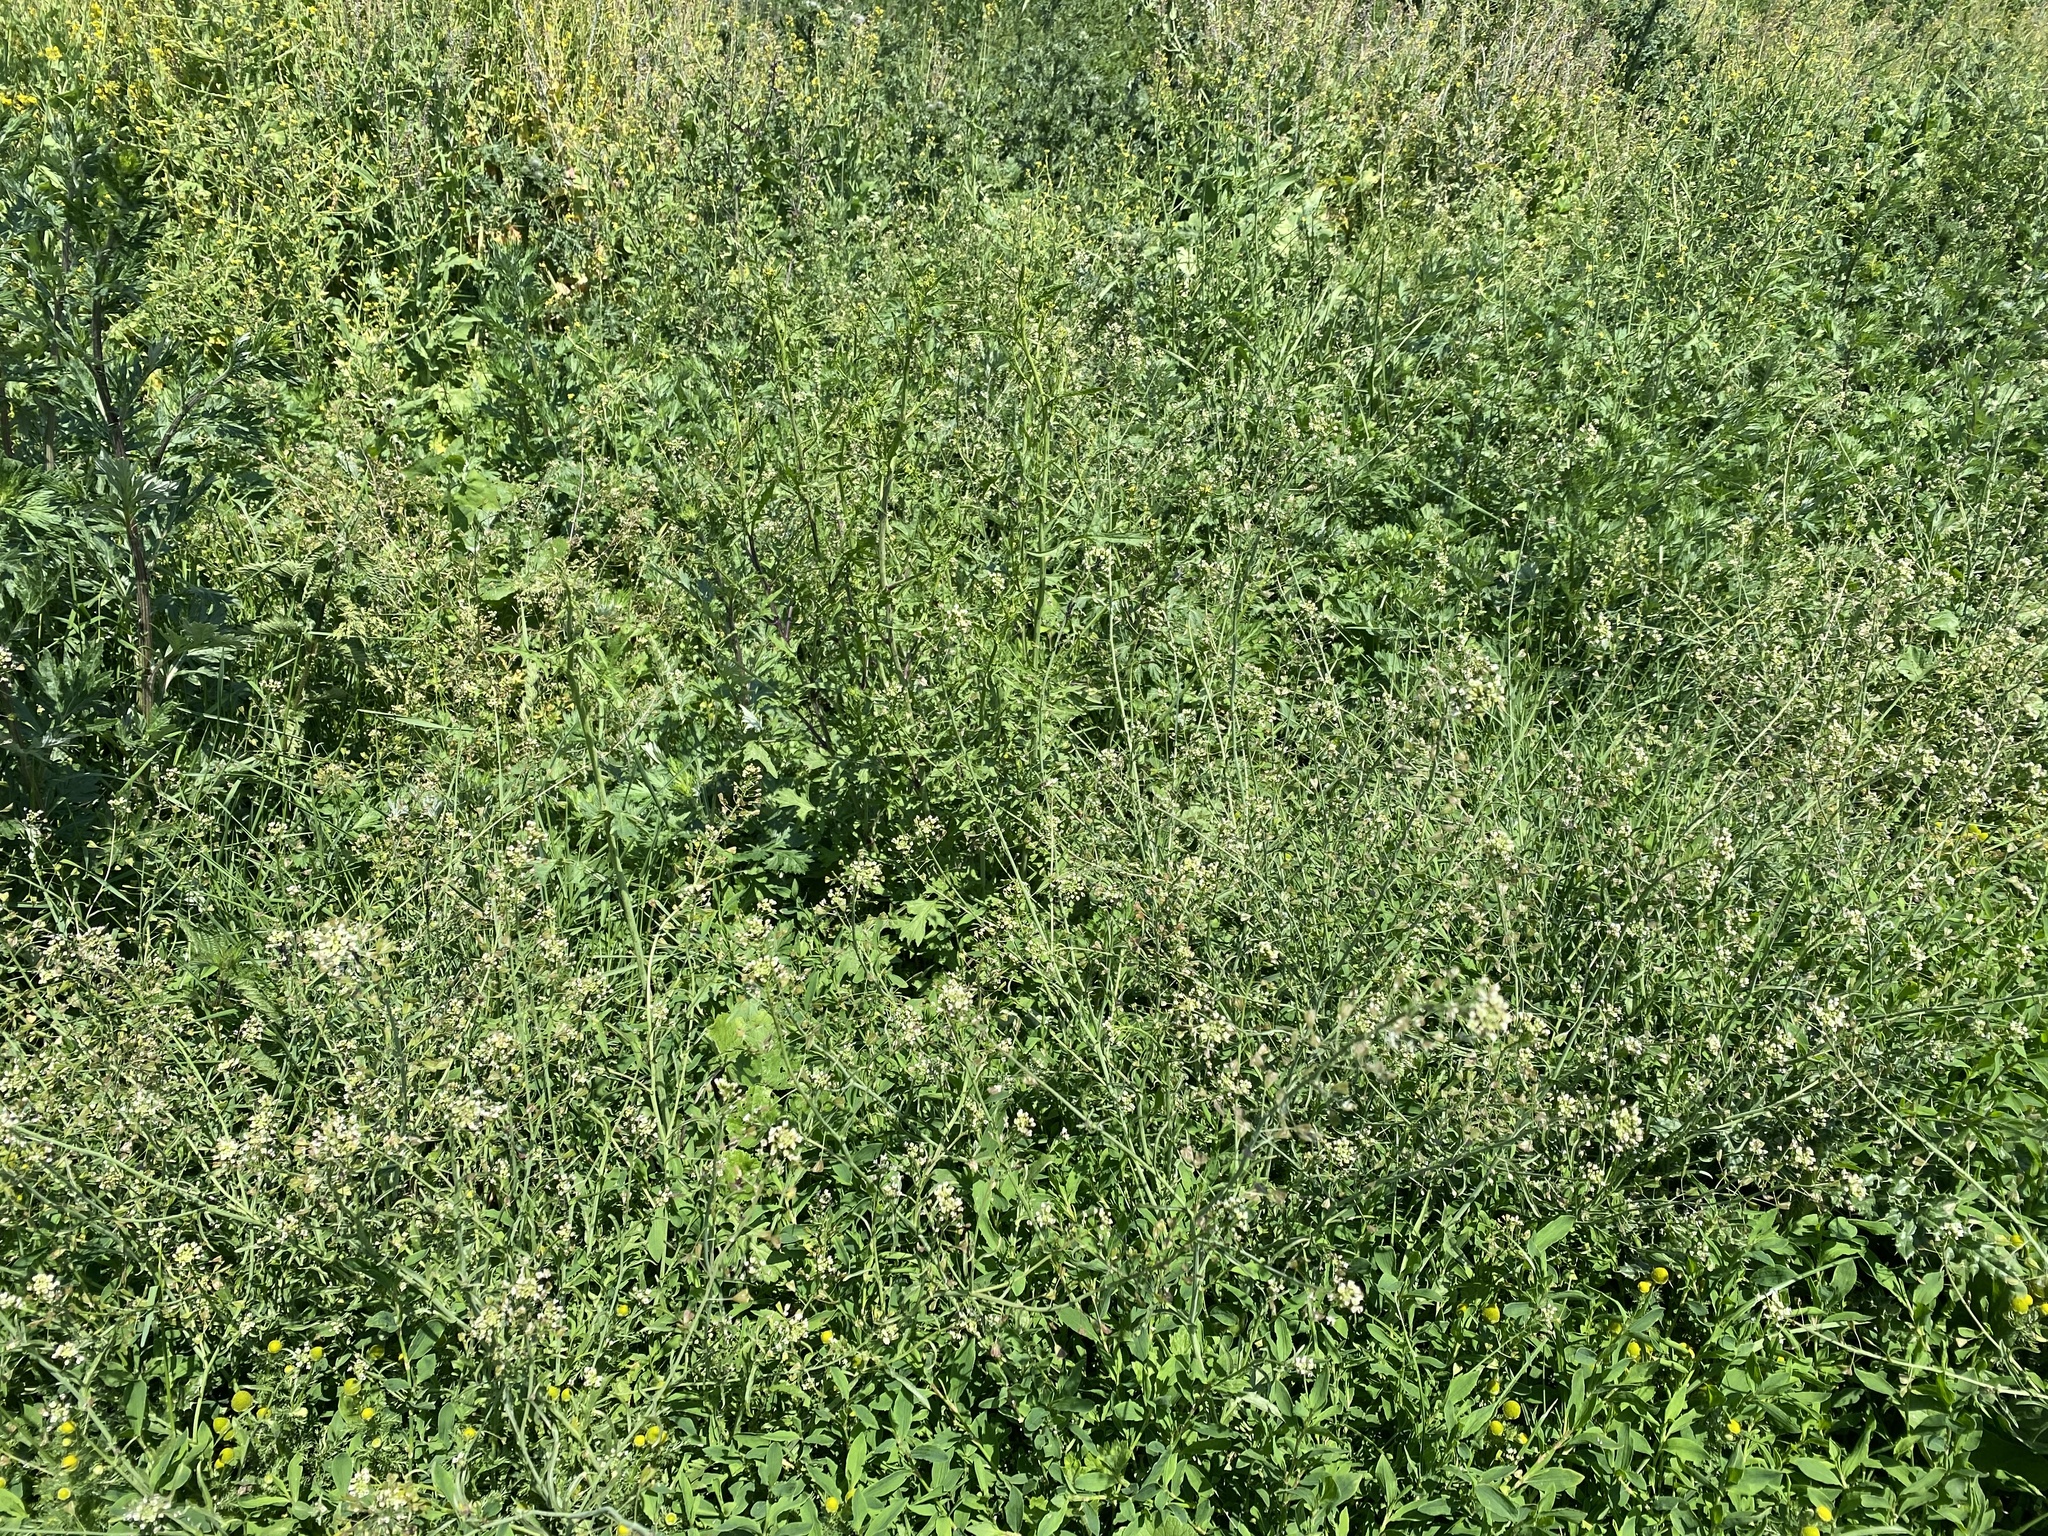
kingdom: Plantae
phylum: Tracheophyta
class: Magnoliopsida
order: Brassicales
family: Brassicaceae
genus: Capsella
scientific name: Capsella bursa-pastoris
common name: Shepherd's purse
